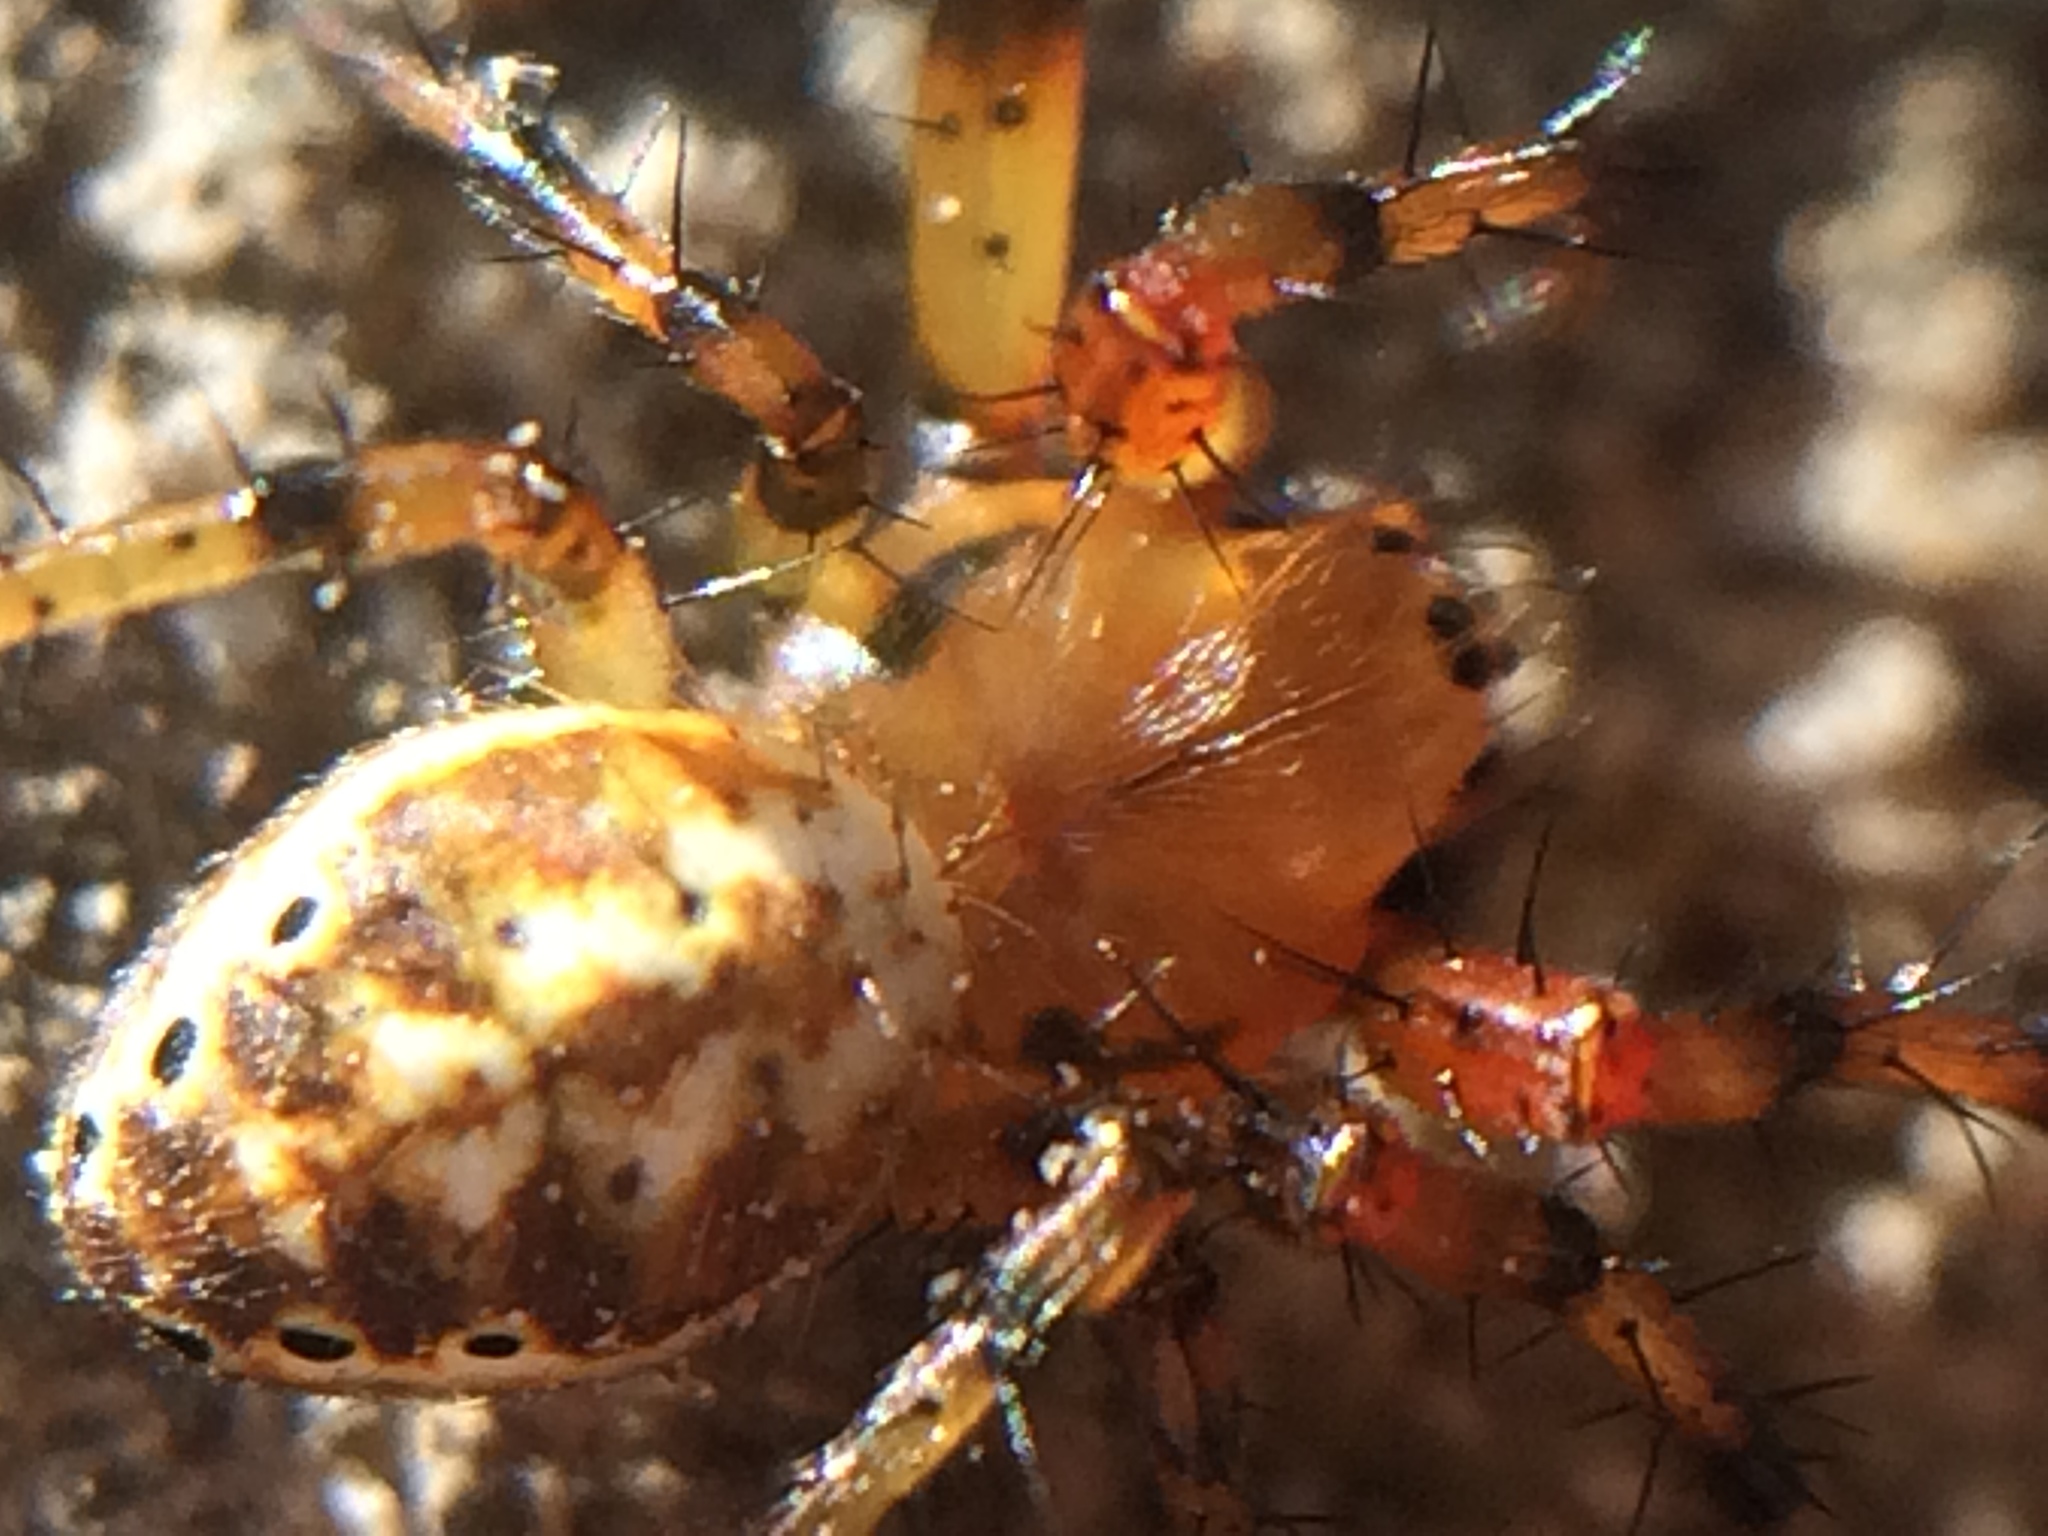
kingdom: Animalia
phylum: Arthropoda
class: Arachnida
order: Araneae
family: Araneidae
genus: Araniella
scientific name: Araniella displicata
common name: Sixspotted orb weaver
